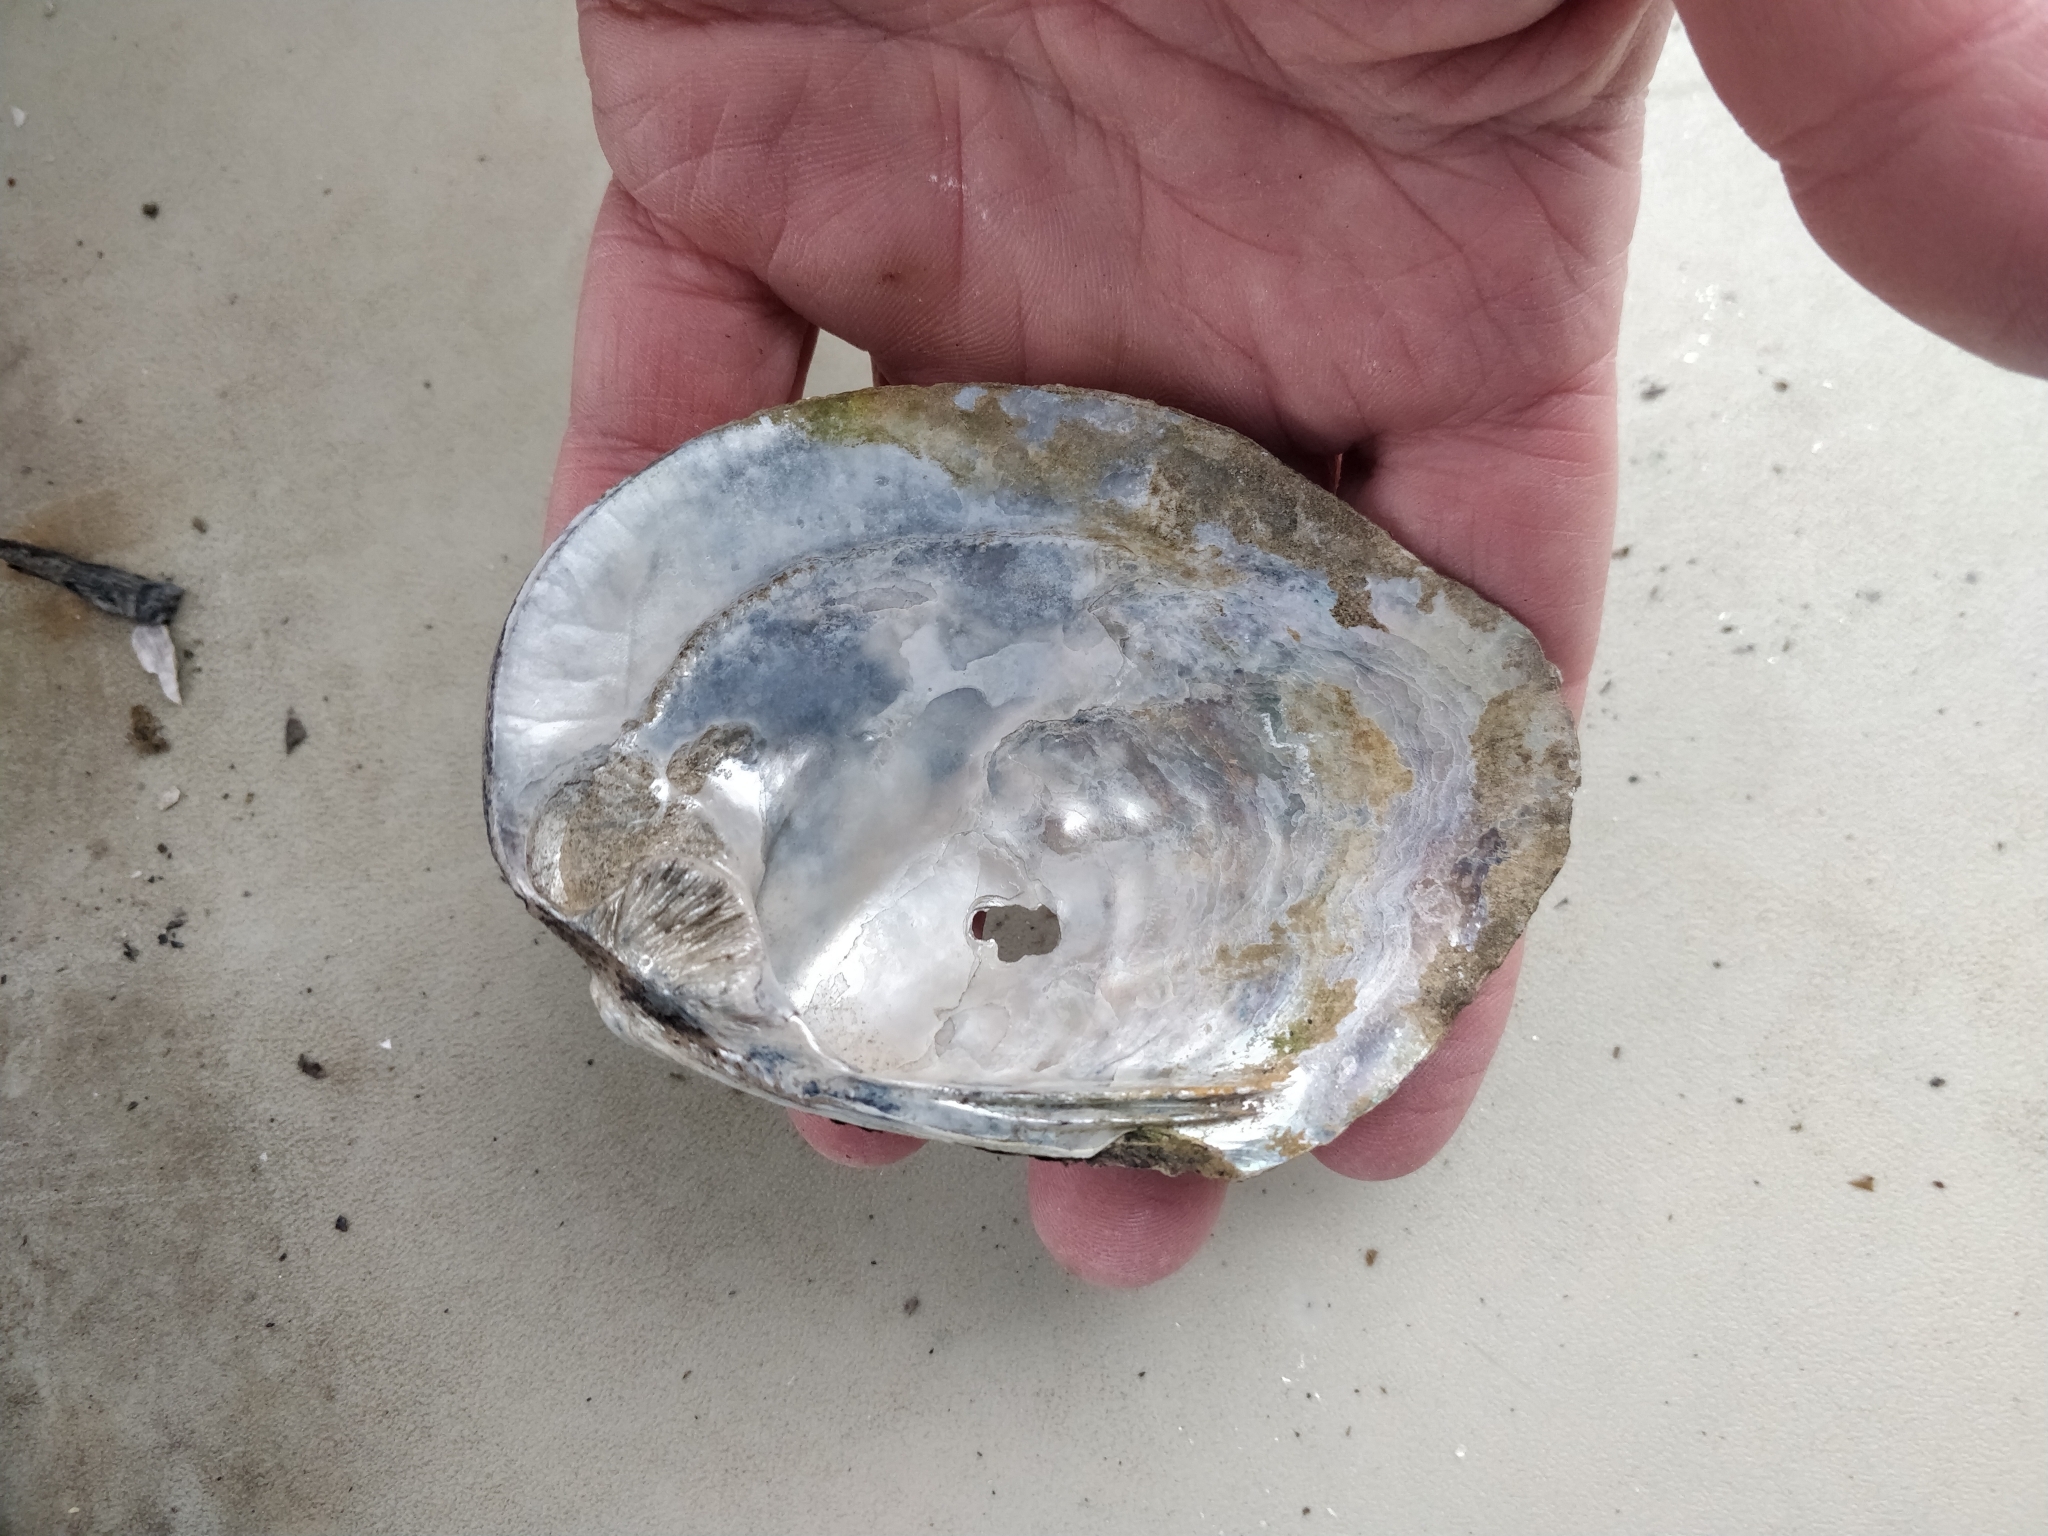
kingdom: Animalia
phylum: Mollusca
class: Bivalvia
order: Unionida
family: Unionidae
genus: Amblema
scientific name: Amblema plicata
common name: Threeridge
